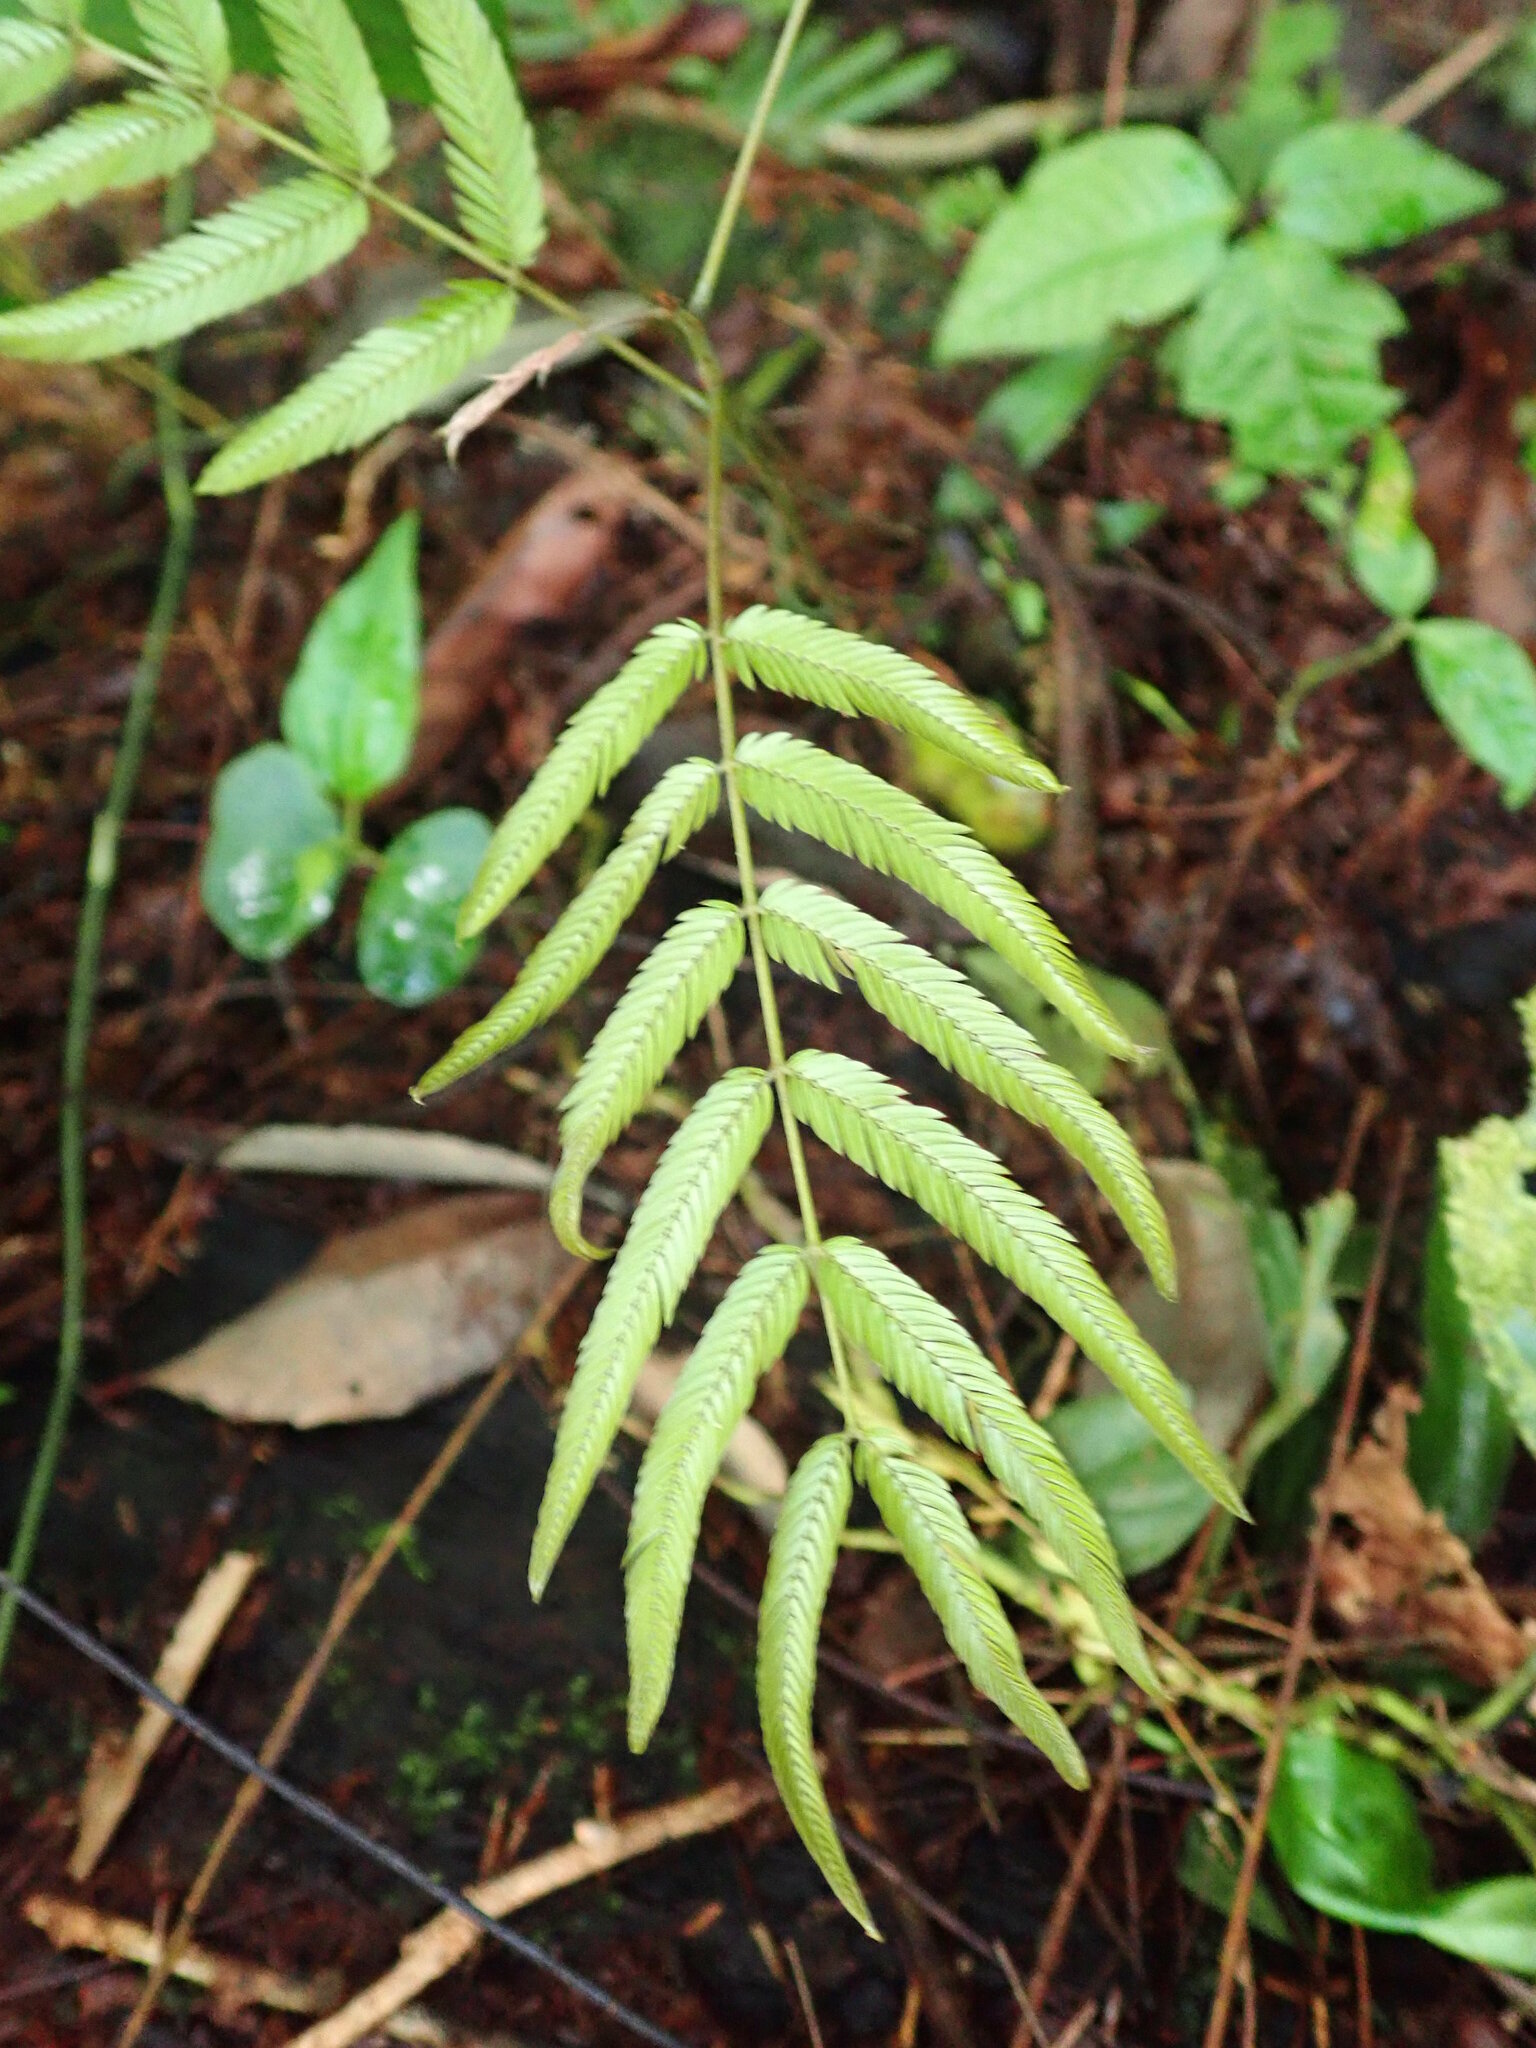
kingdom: Plantae
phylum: Tracheophyta
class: Magnoliopsida
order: Fabales
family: Fabaceae
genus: Pentaclethra
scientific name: Pentaclethra macroloba
